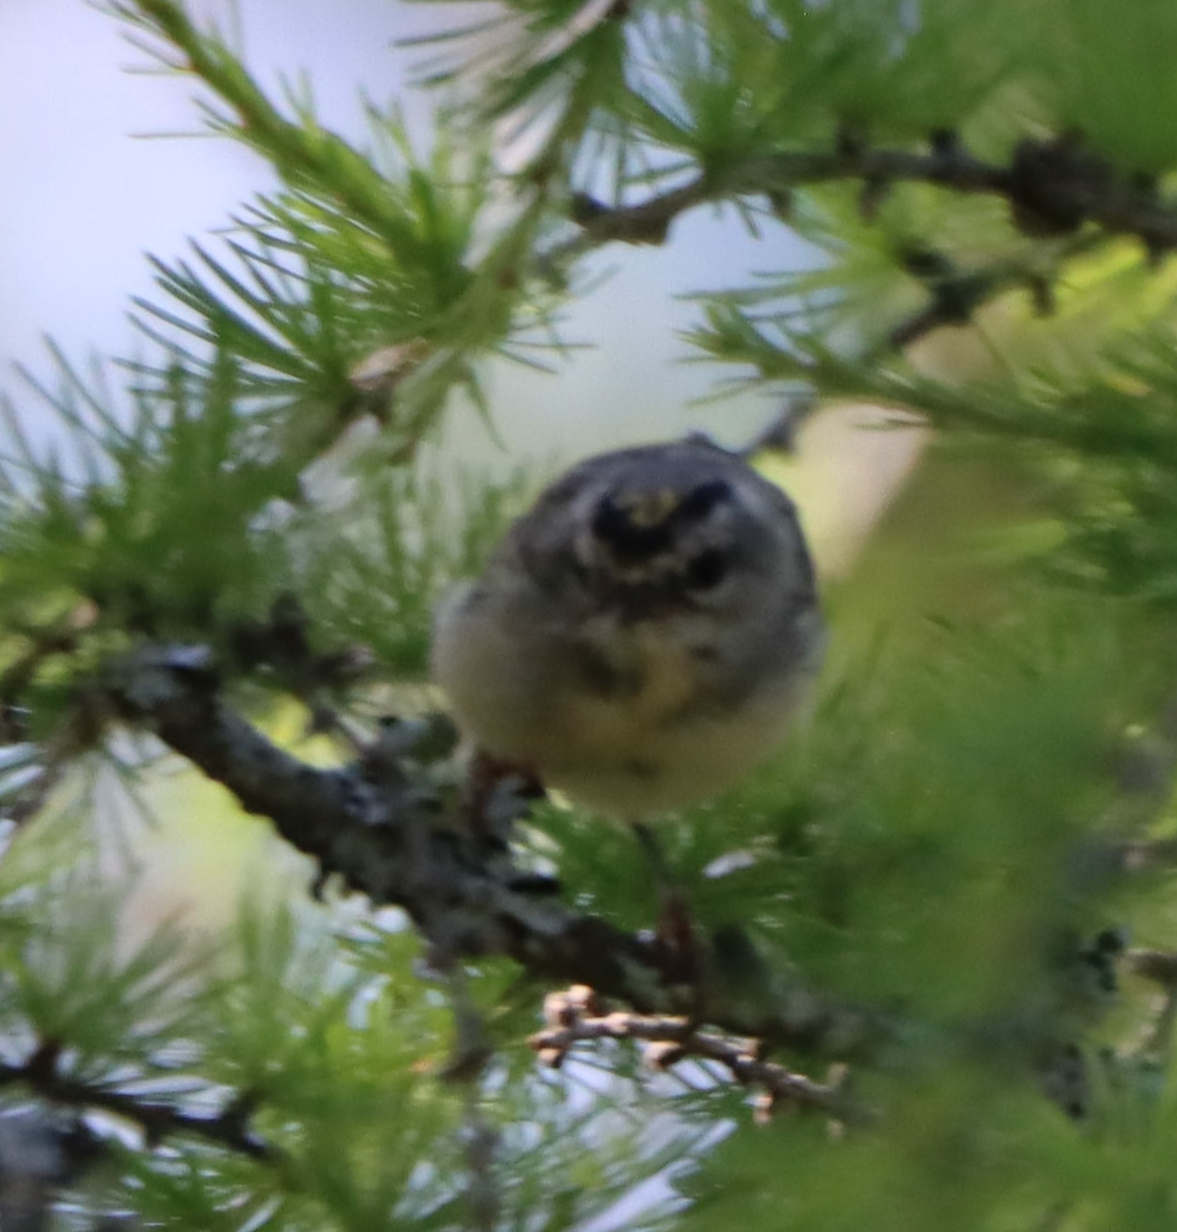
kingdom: Animalia
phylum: Chordata
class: Aves
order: Passeriformes
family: Regulidae
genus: Regulus
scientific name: Regulus satrapa
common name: Golden-crowned kinglet
